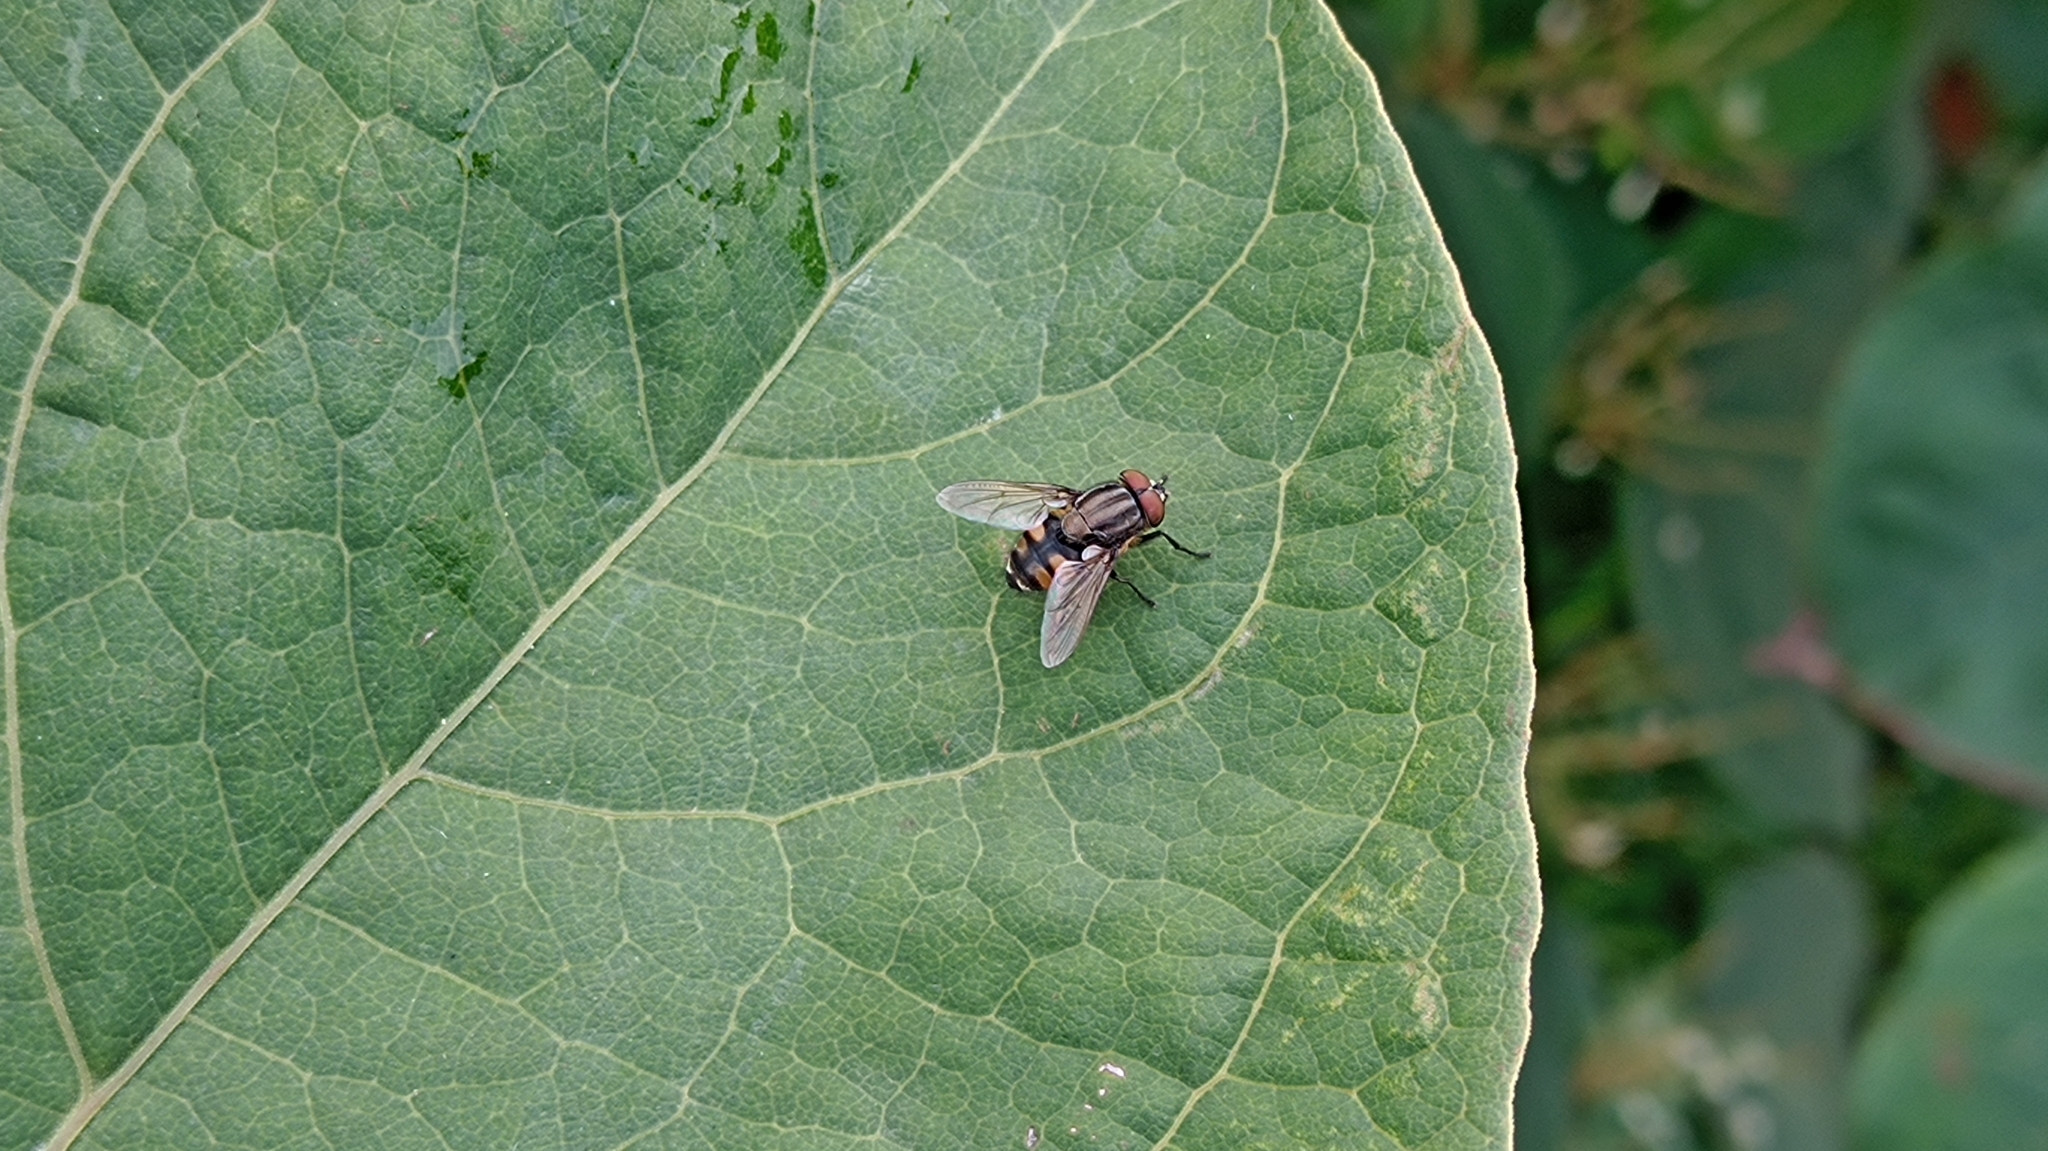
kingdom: Animalia
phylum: Arthropoda
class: Insecta
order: Diptera
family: Calliphoridae
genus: Stomorhina
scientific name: Stomorhina lunata
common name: Locust blowfly
